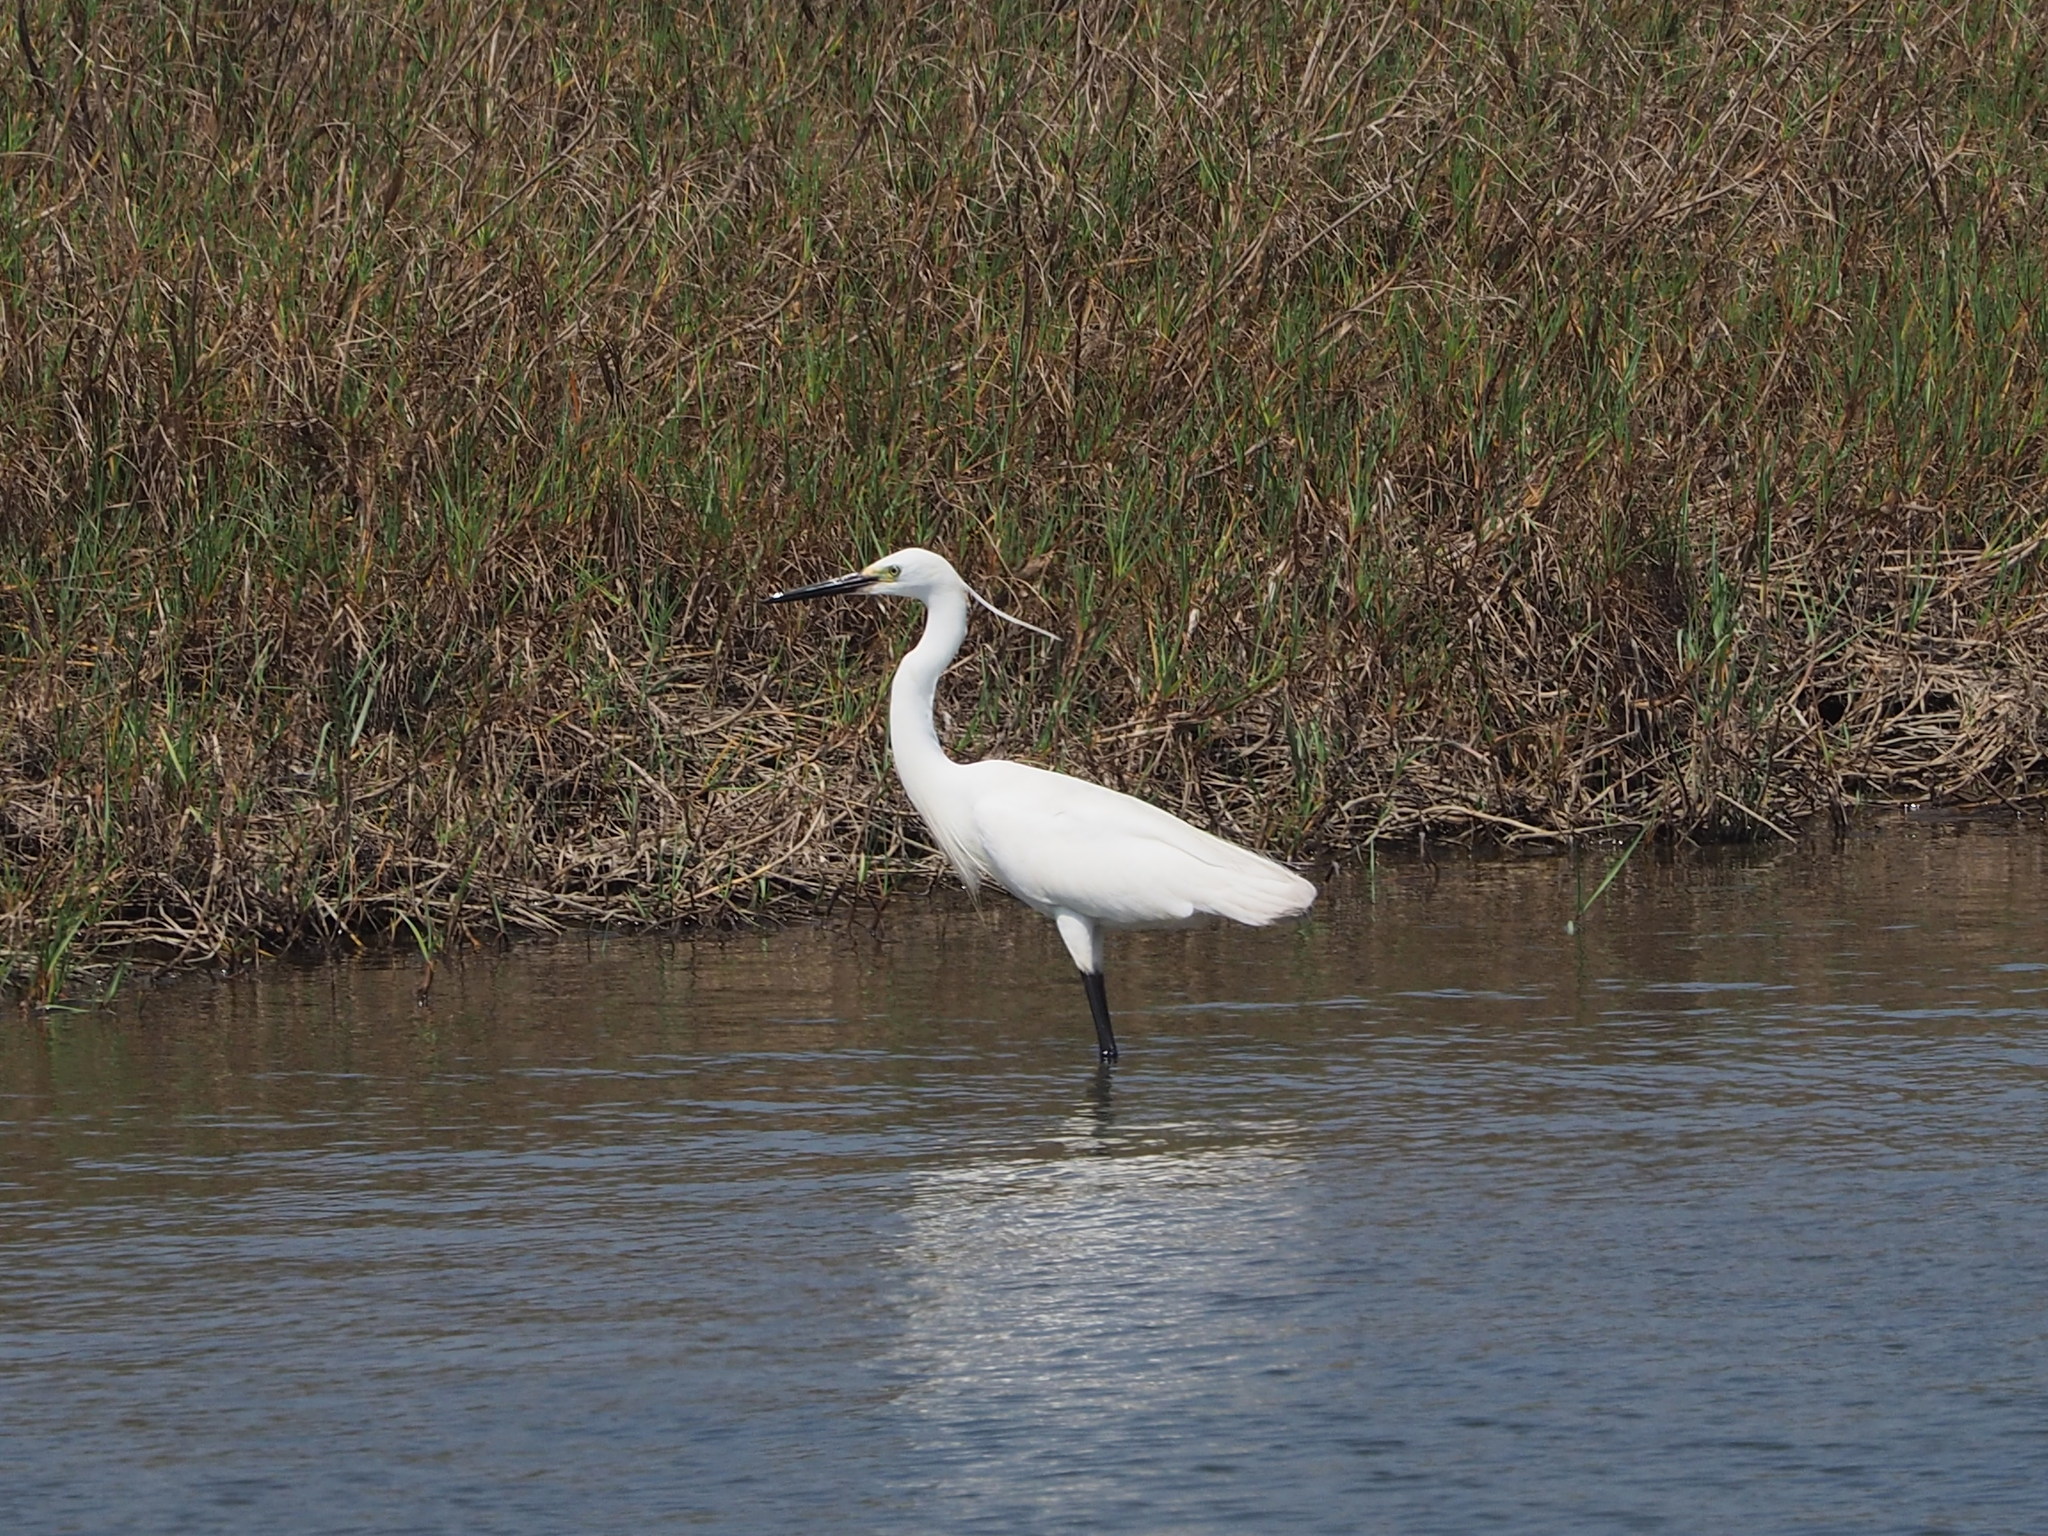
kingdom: Animalia
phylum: Chordata
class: Aves
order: Pelecaniformes
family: Ardeidae
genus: Egretta
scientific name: Egretta garzetta
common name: Little egret
